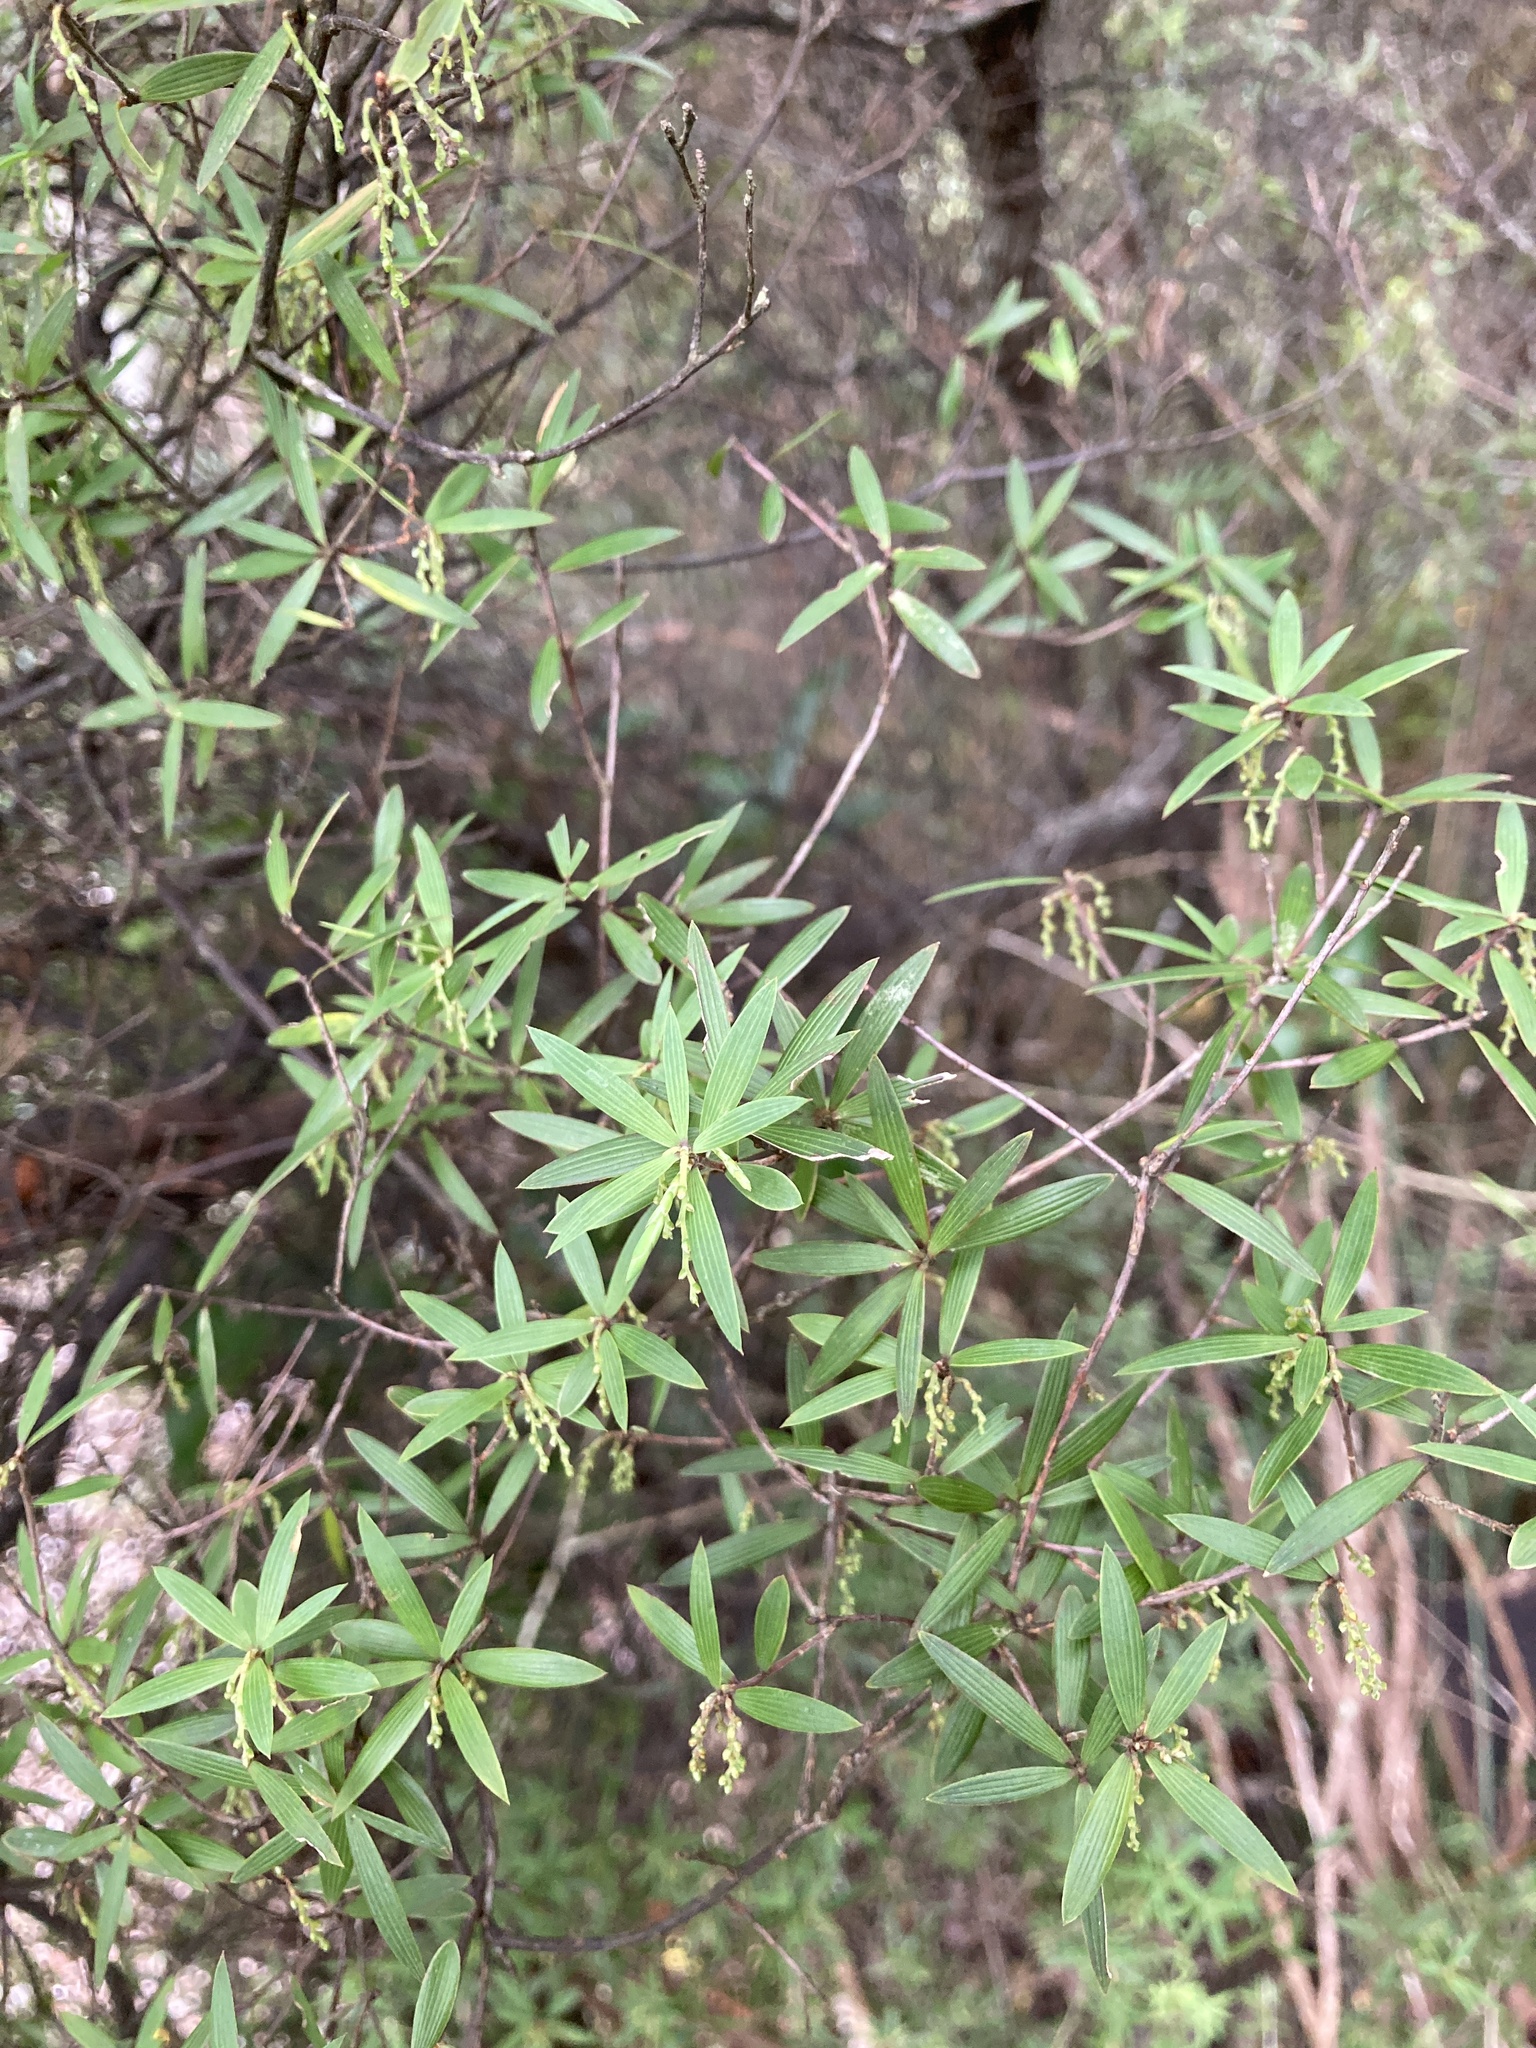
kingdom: Plantae
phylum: Tracheophyta
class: Magnoliopsida
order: Ericales
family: Ericaceae
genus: Leucopogon
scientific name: Leucopogon fasciculatus
